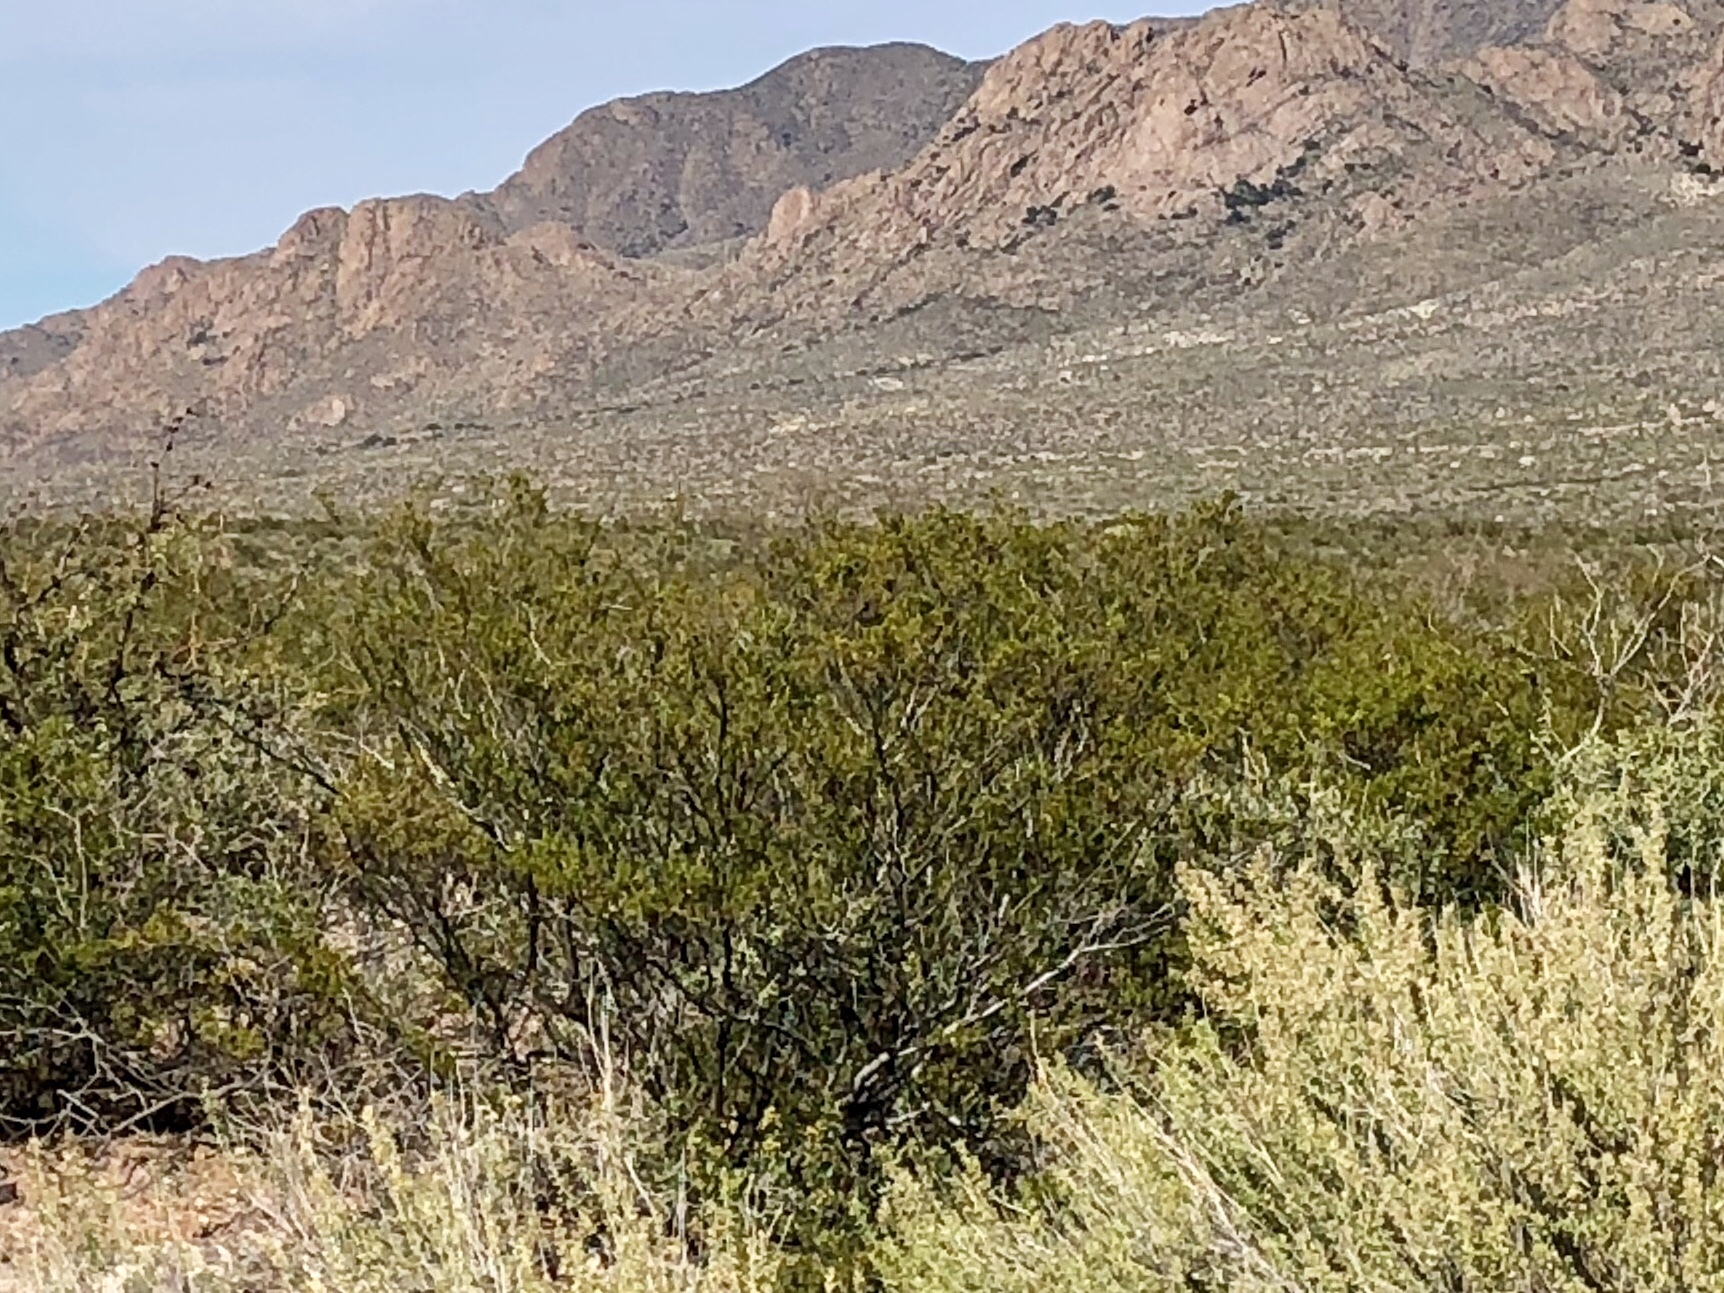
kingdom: Plantae
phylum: Tracheophyta
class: Magnoliopsida
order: Zygophyllales
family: Zygophyllaceae
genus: Larrea
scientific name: Larrea tridentata
